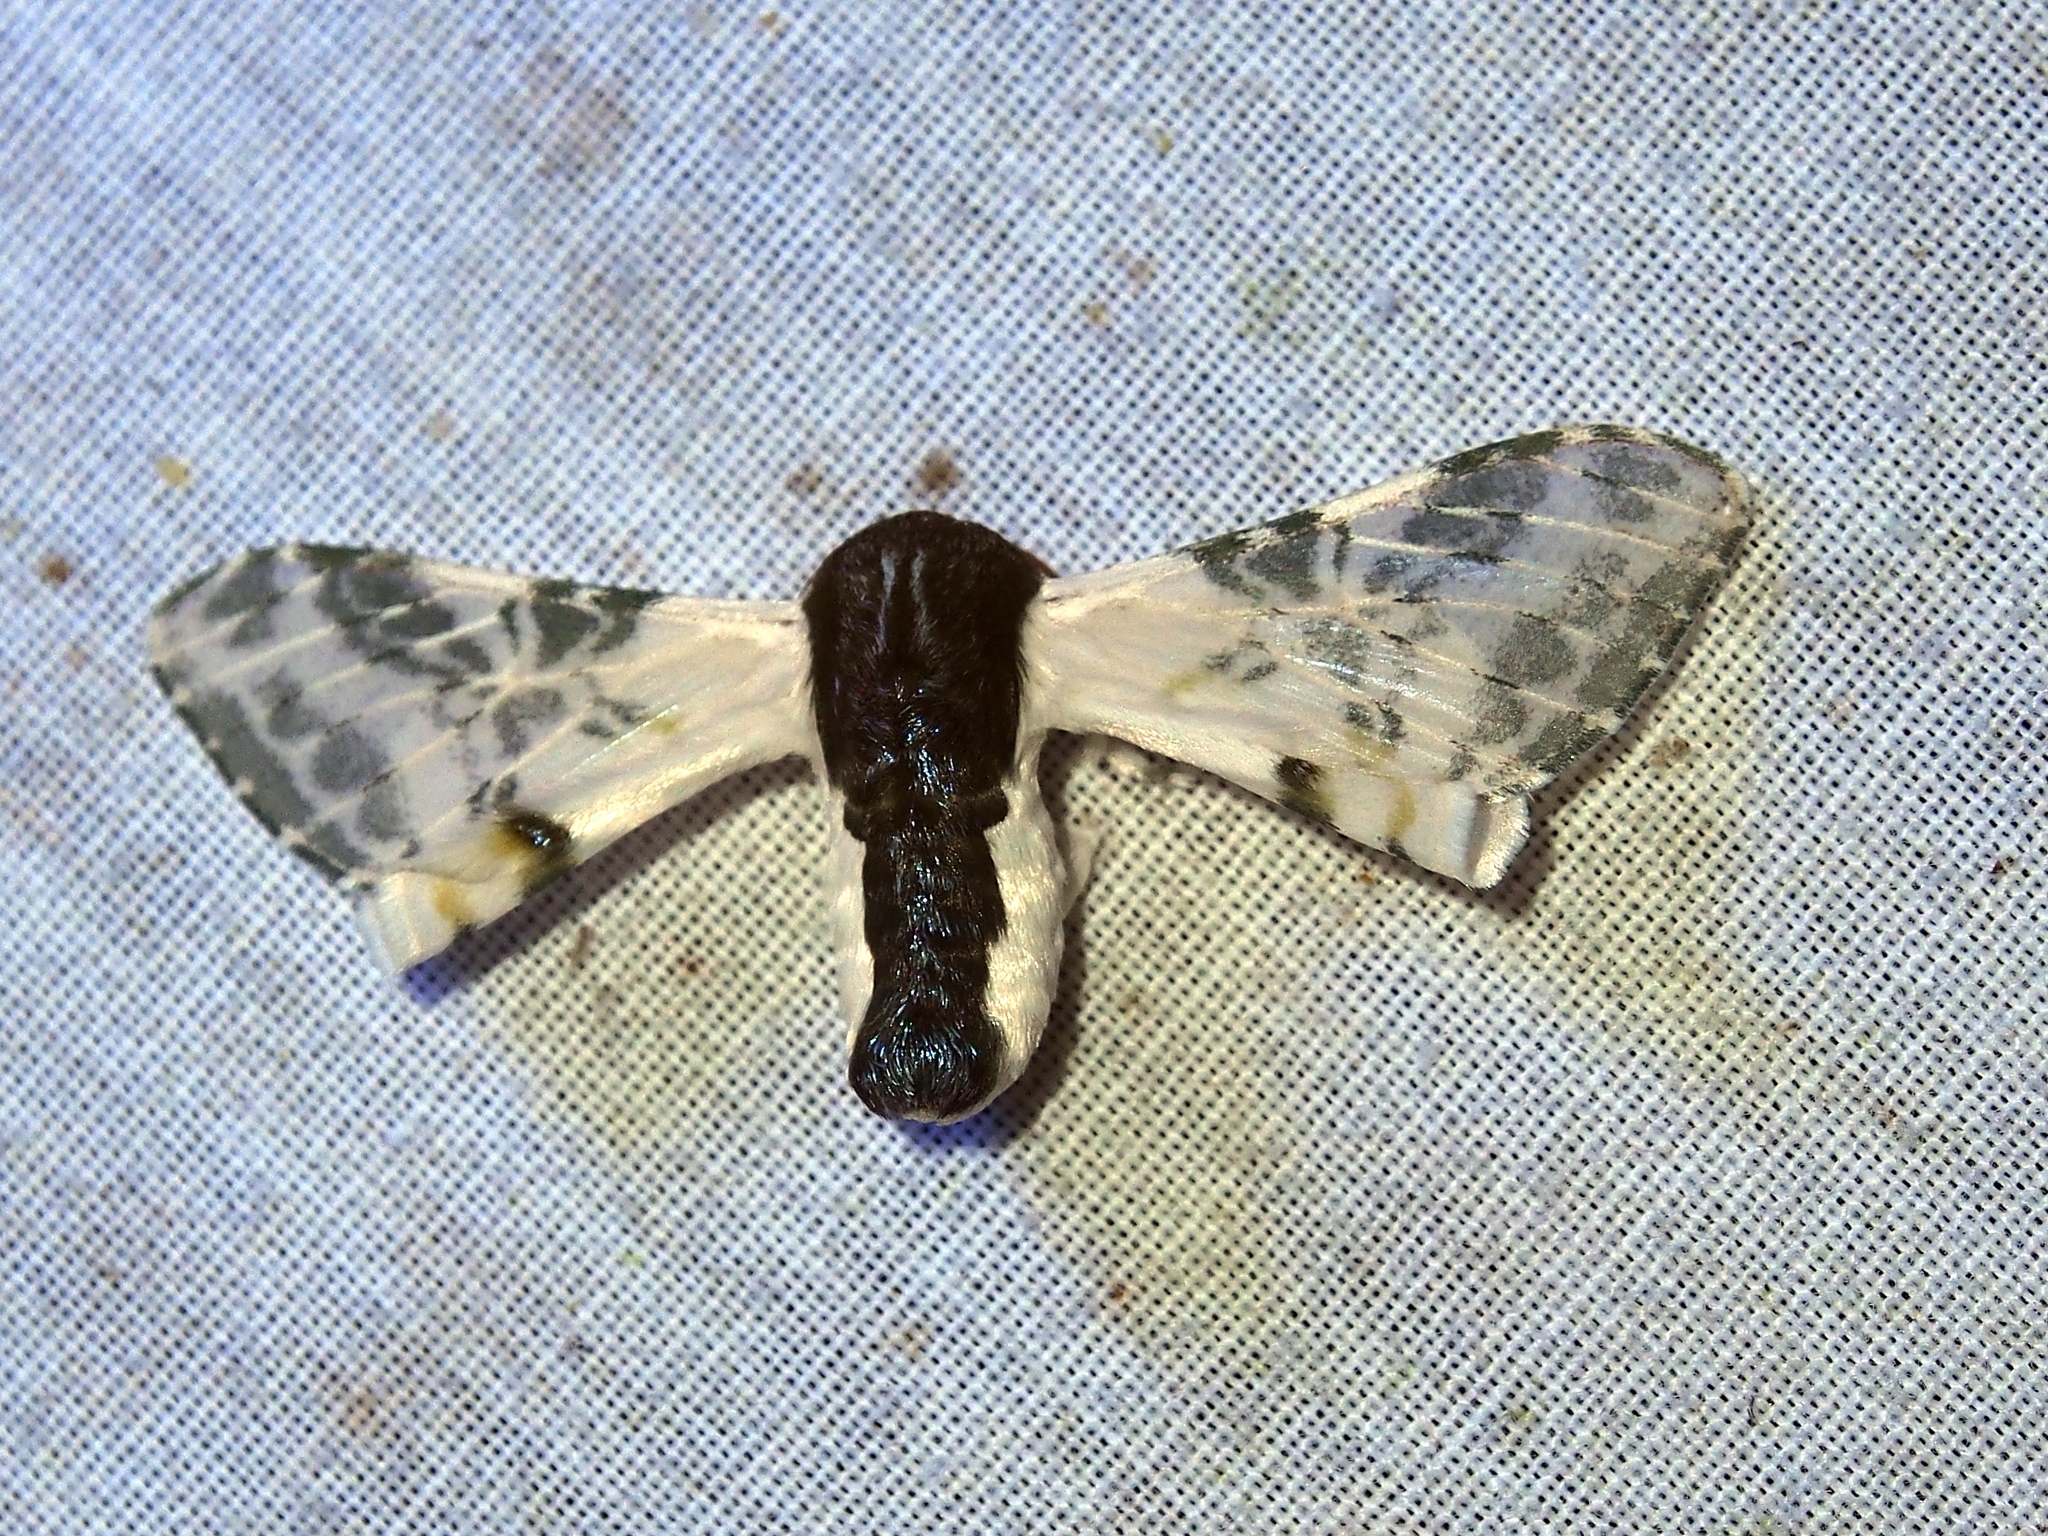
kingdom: Animalia
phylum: Arthropoda
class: Insecta
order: Lepidoptera
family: Bombycidae
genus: Colla
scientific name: Colla rhodope
